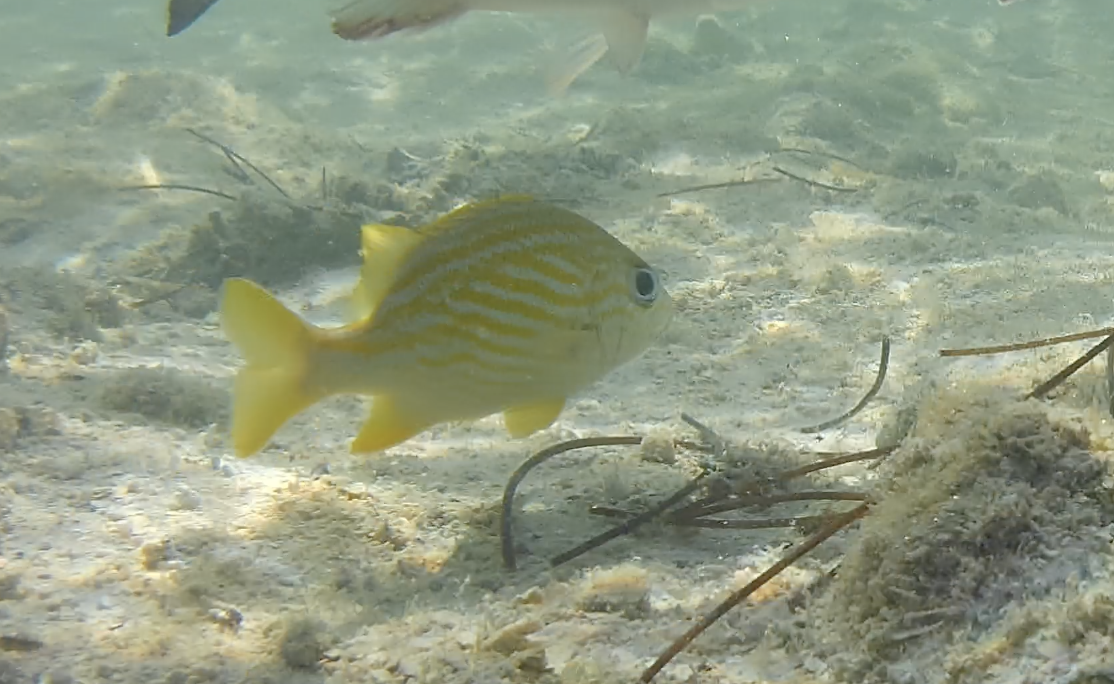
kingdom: Animalia
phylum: Chordata
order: Perciformes
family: Haemulidae
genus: Haemulon
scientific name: Haemulon flavolineatum
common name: French grunt
